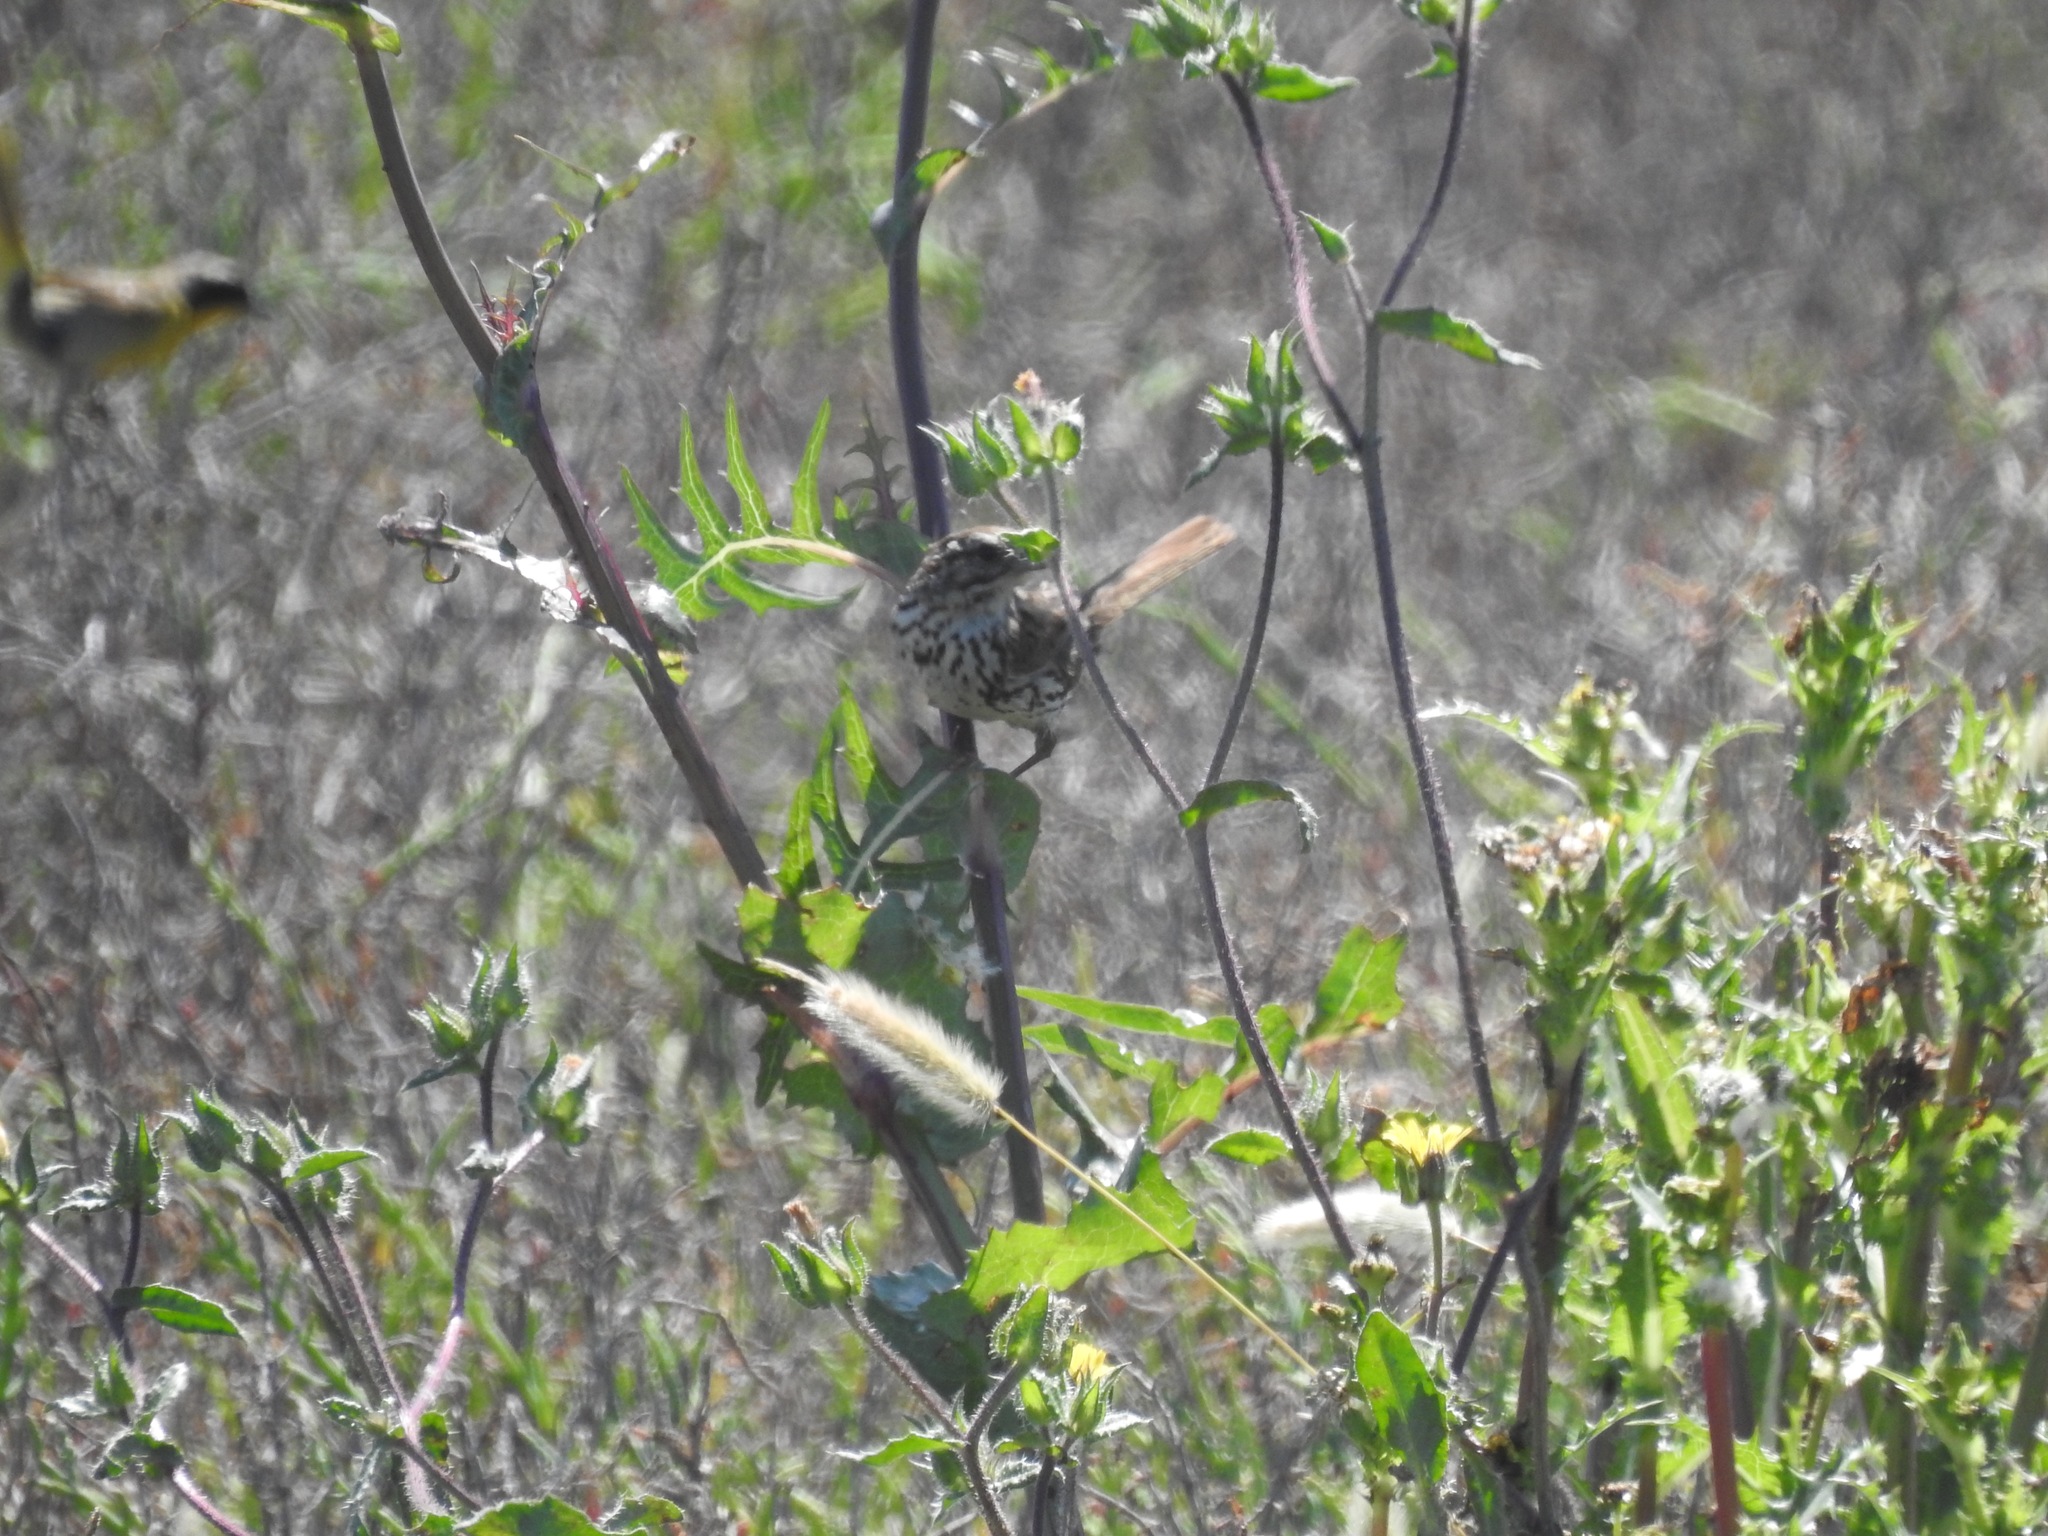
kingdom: Animalia
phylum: Chordata
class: Aves
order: Passeriformes
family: Passerellidae
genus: Melospiza
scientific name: Melospiza melodia
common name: Song sparrow
